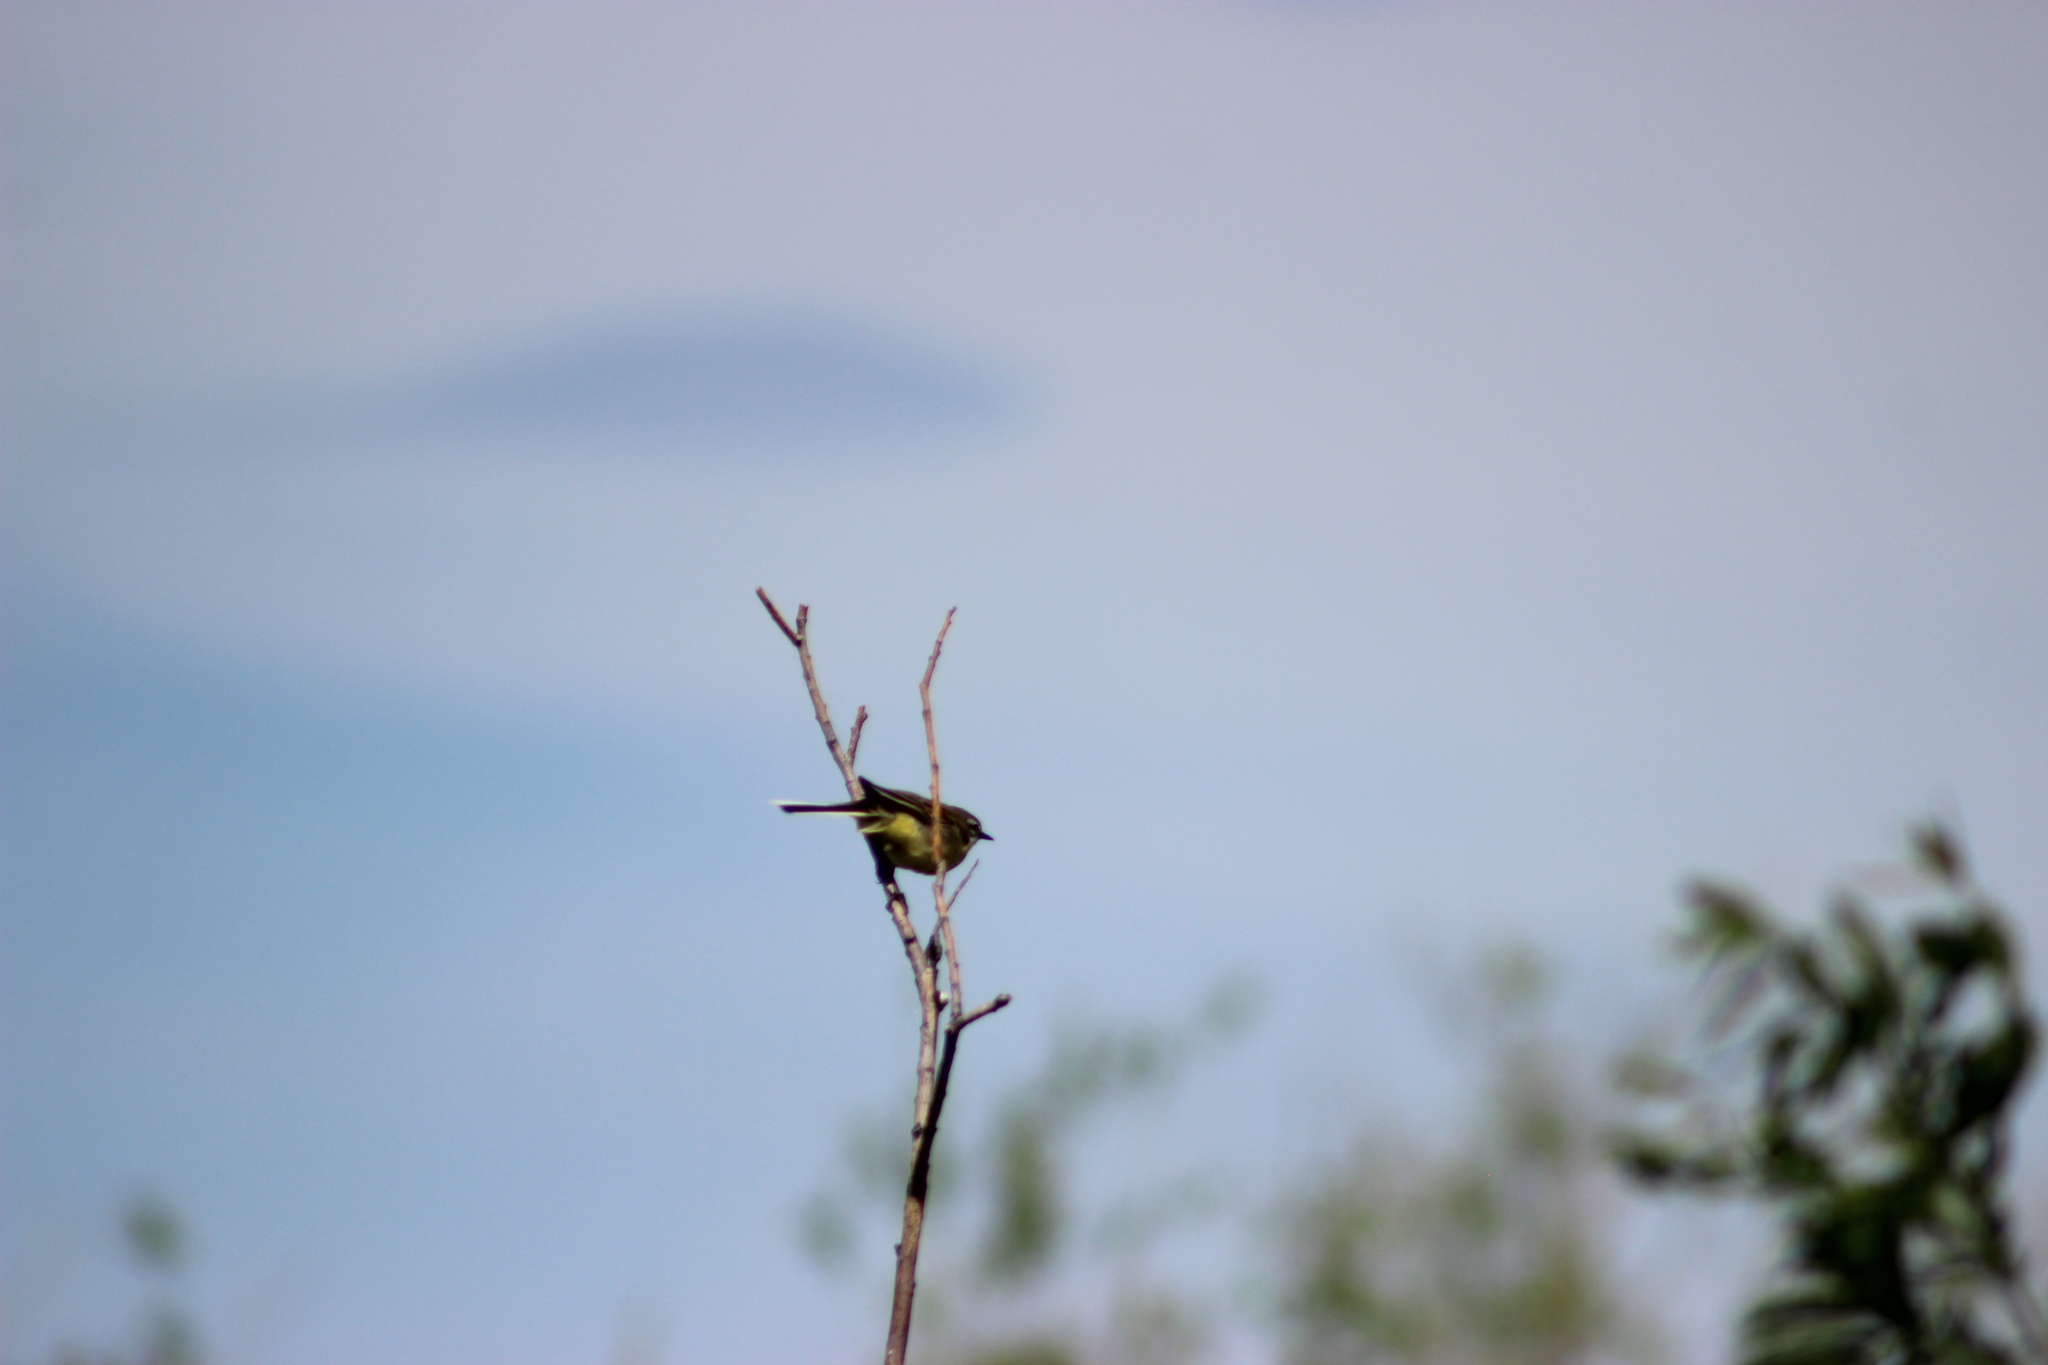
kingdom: Animalia
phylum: Chordata
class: Aves
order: Passeriformes
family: Motacillidae
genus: Motacilla
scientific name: Motacilla flava
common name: Western yellow wagtail
